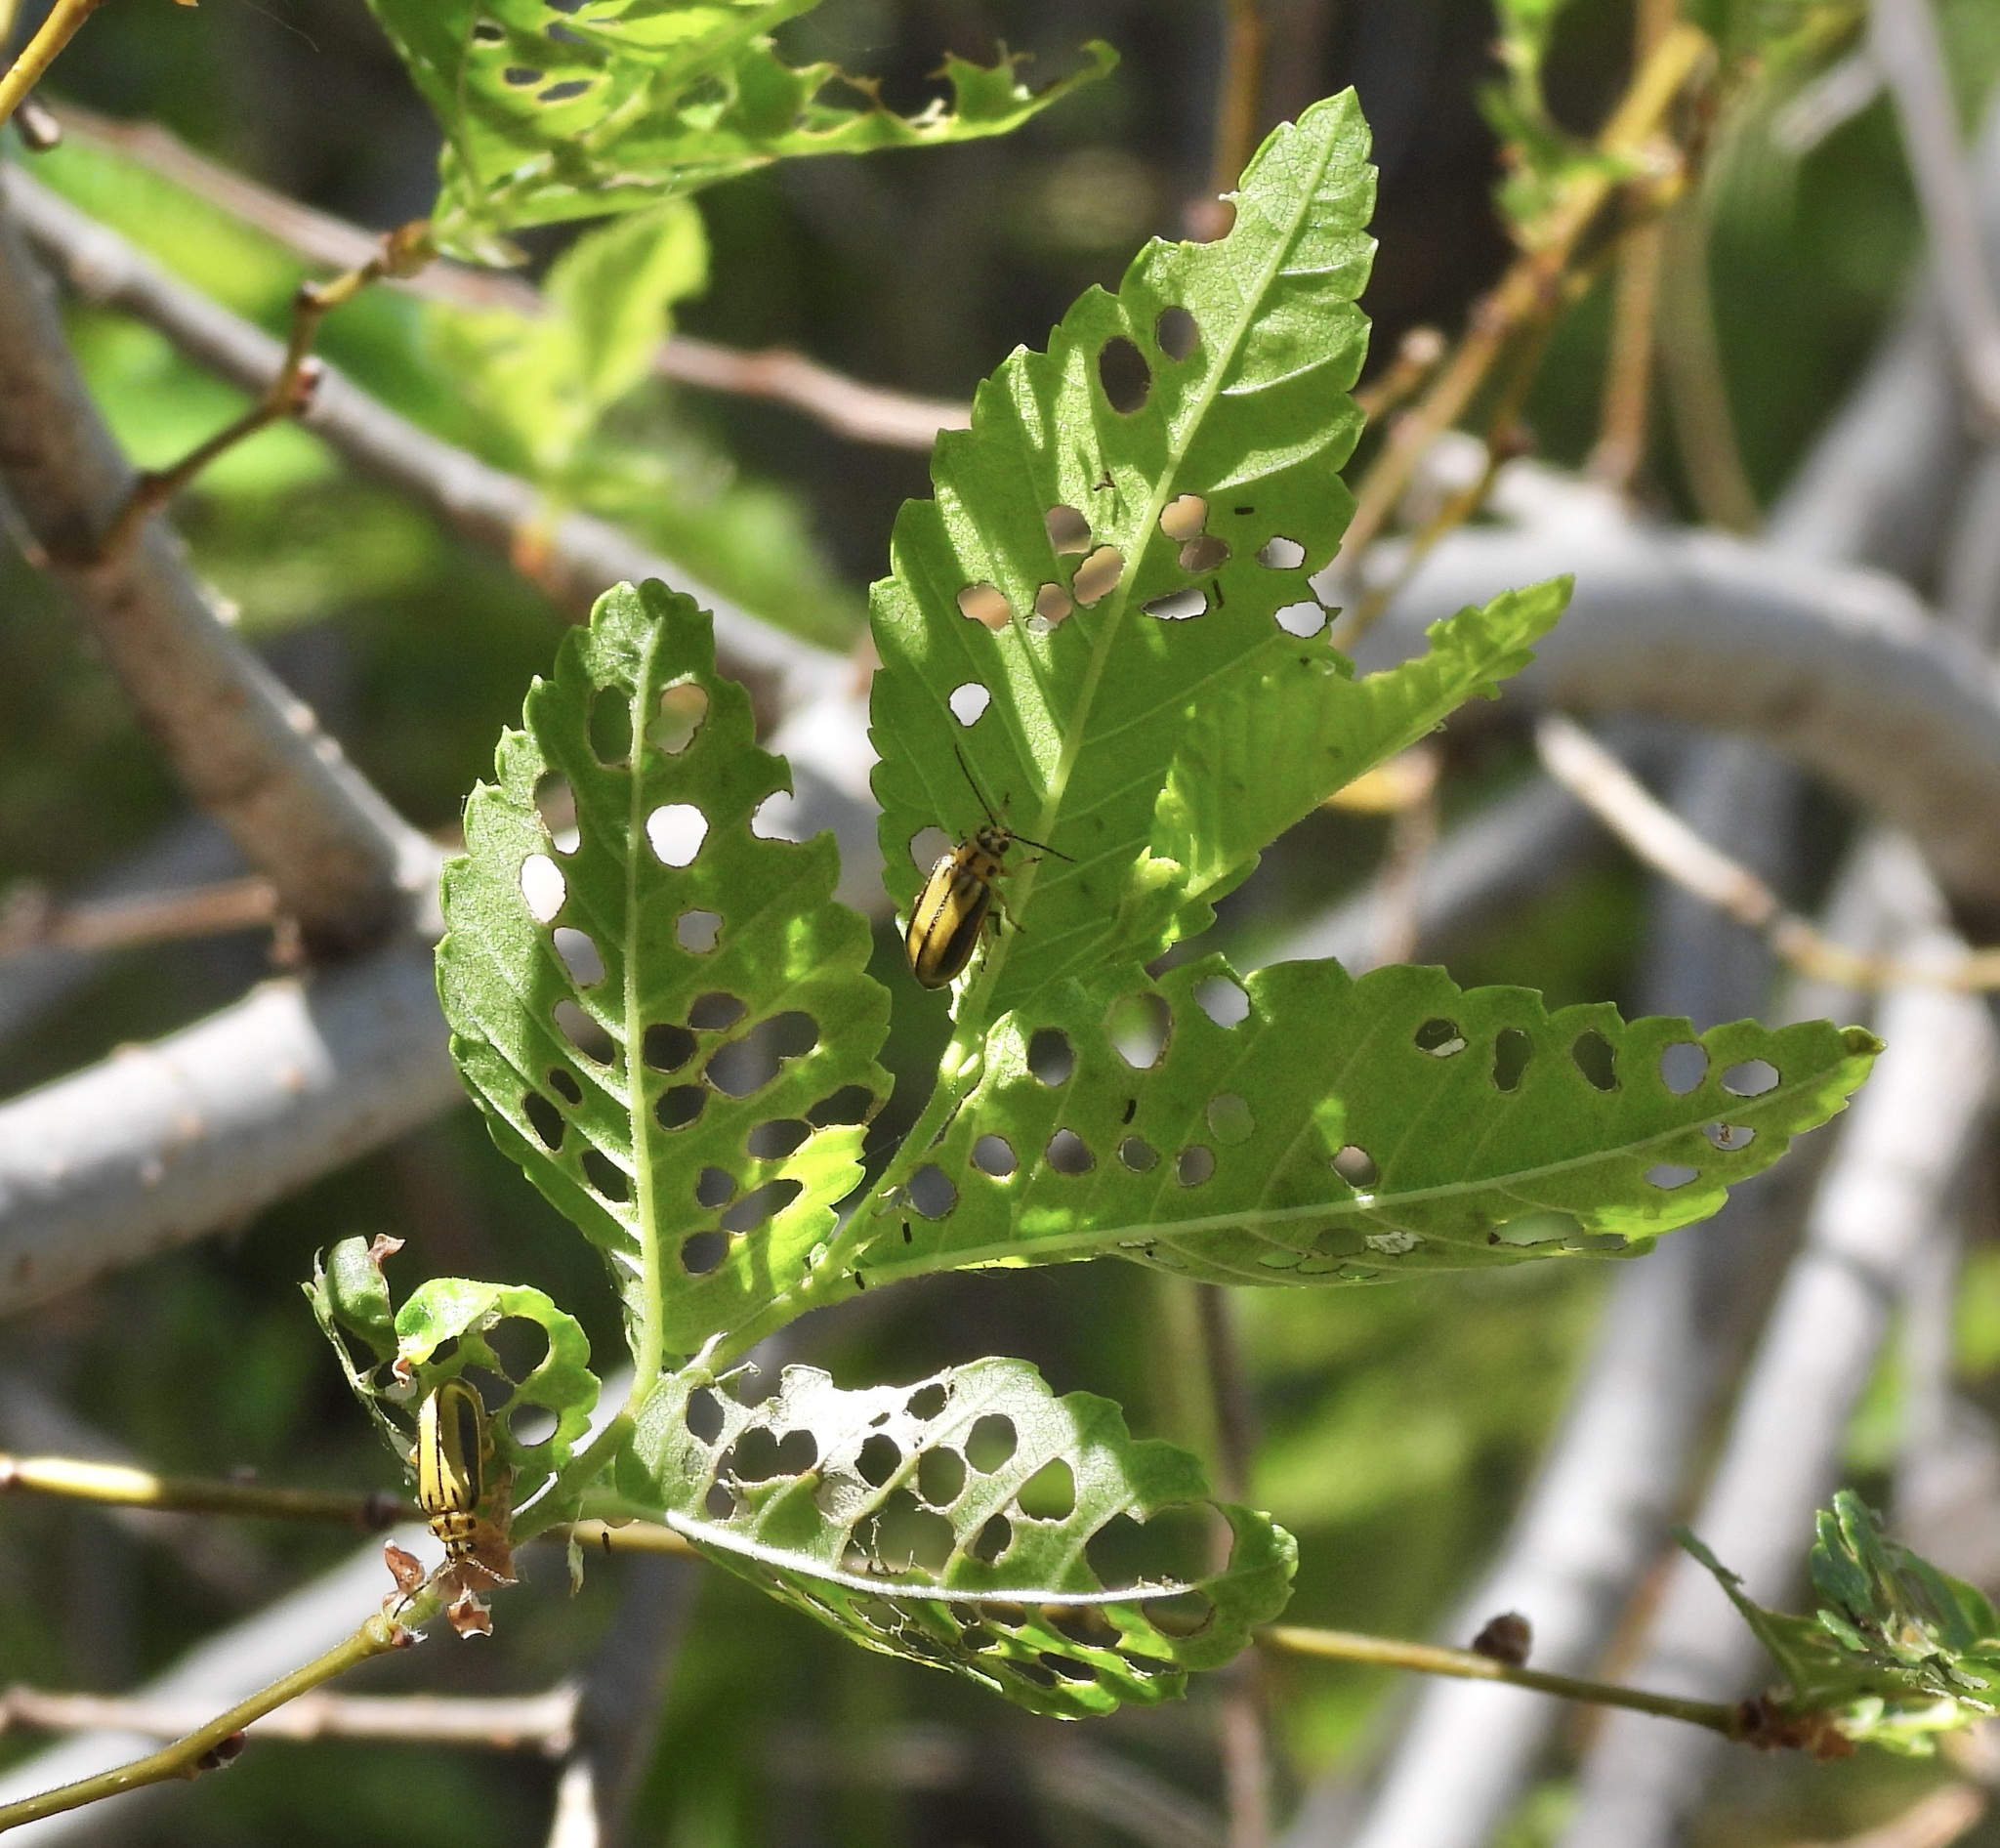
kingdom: Animalia
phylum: Arthropoda
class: Insecta
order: Coleoptera
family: Chrysomelidae
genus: Xanthogaleruca
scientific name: Xanthogaleruca luteola
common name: Elm leaf beetle
